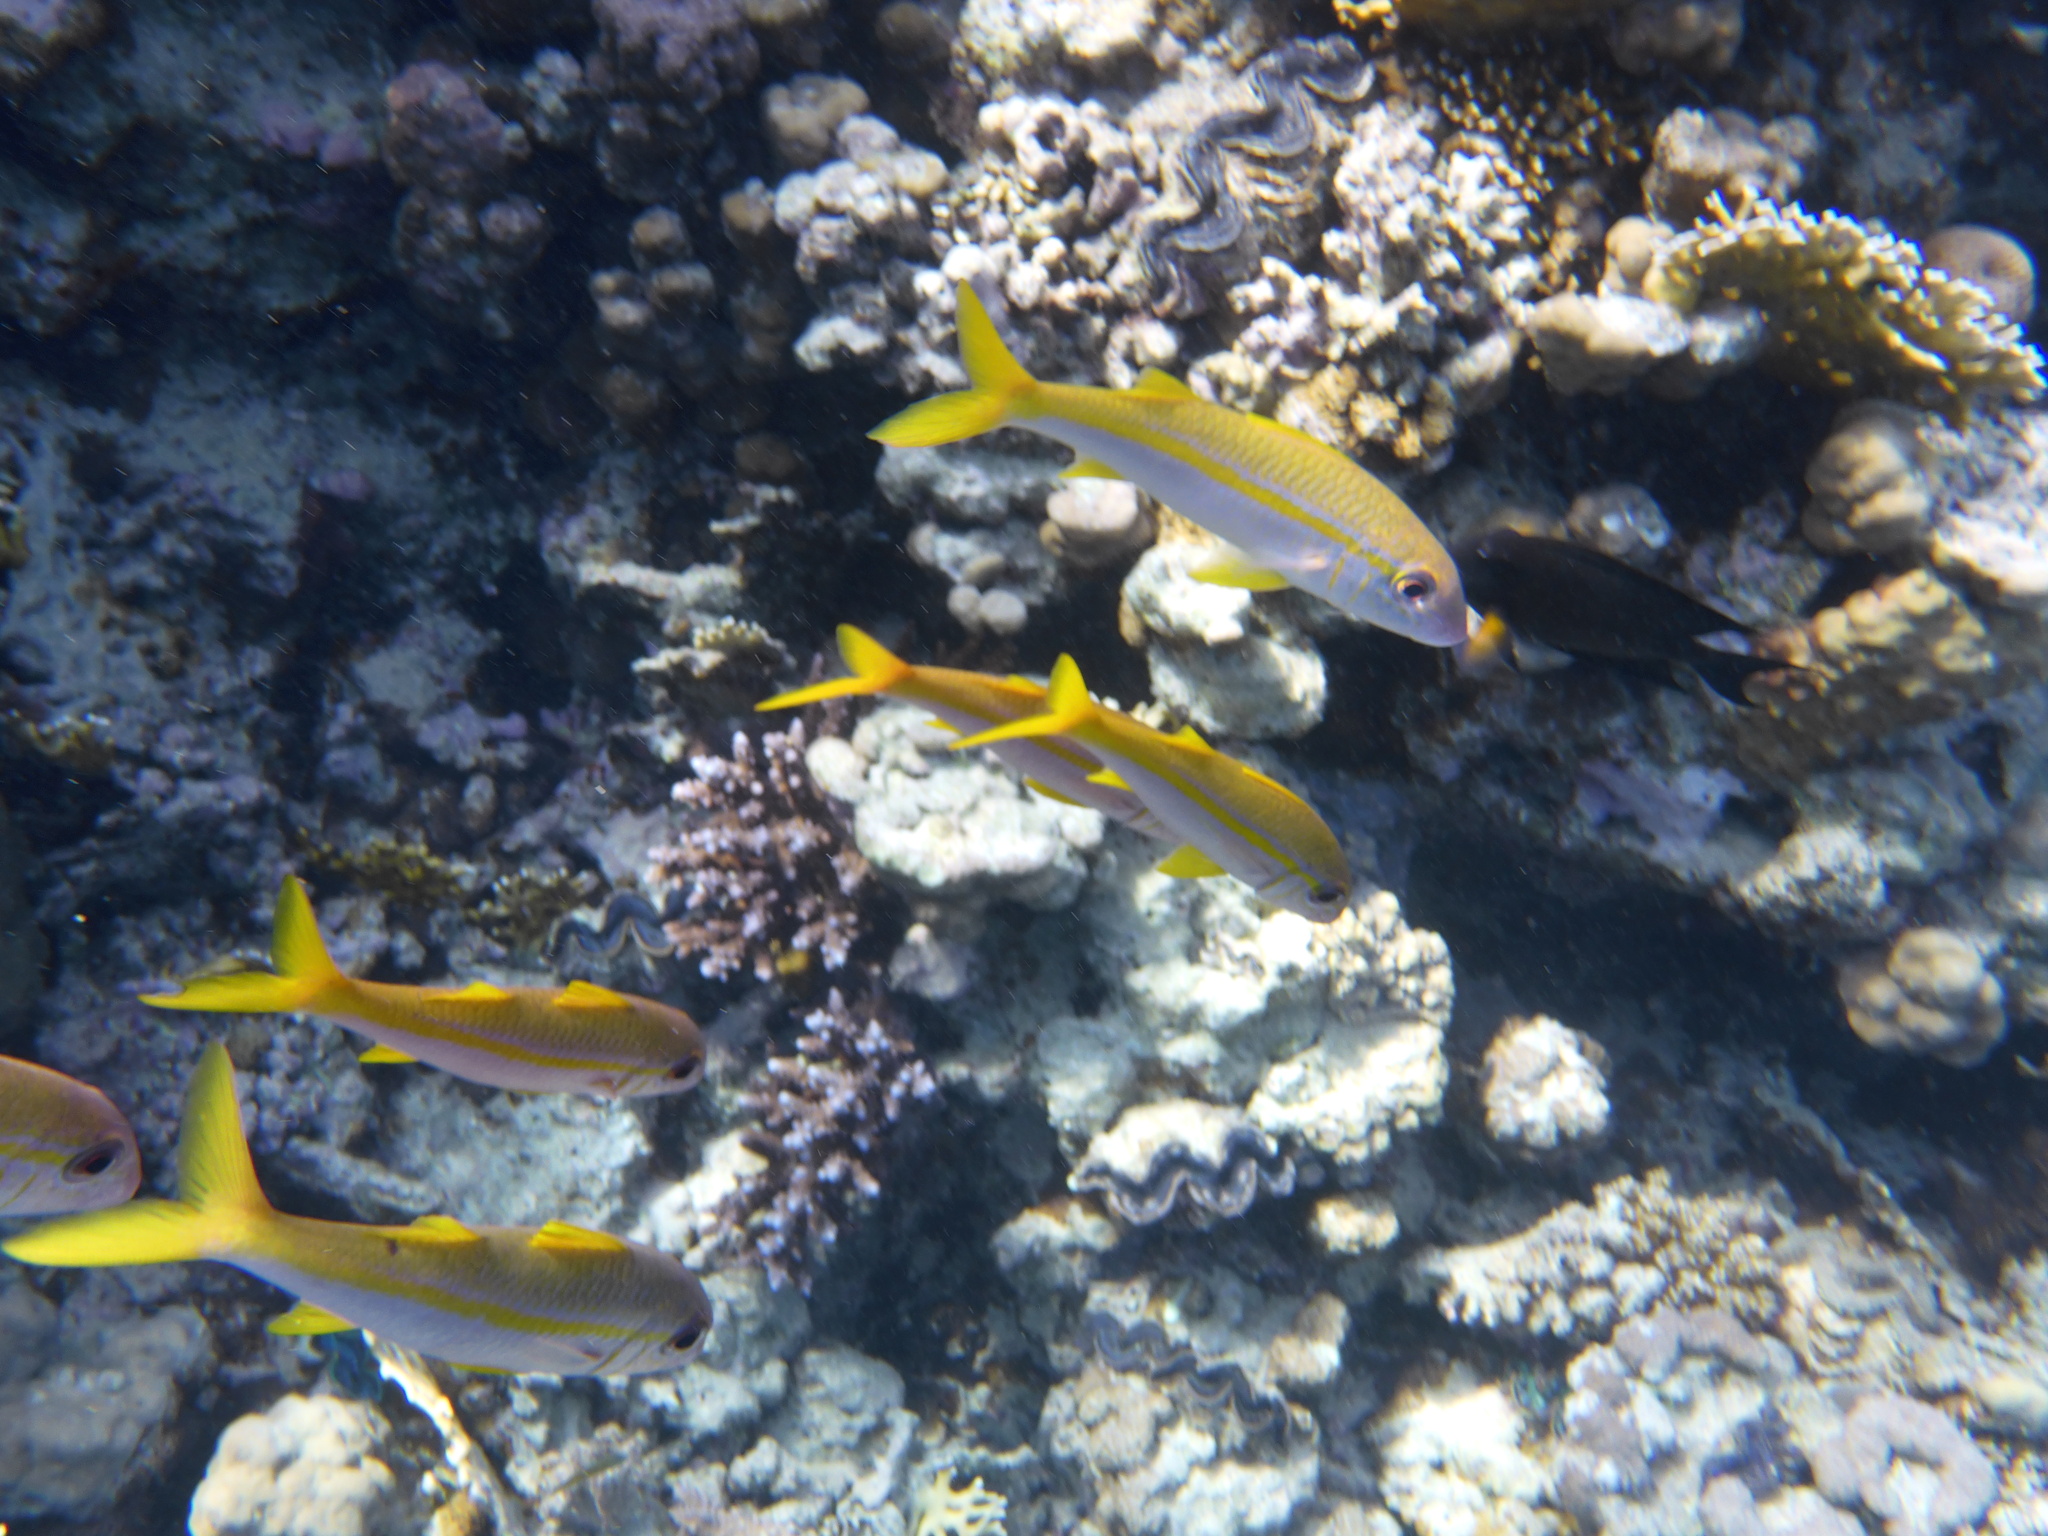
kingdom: Animalia
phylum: Chordata
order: Perciformes
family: Mullidae
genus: Mulloidichthys
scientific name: Mulloidichthys vanicolensis
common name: Yellowfin goatfish
